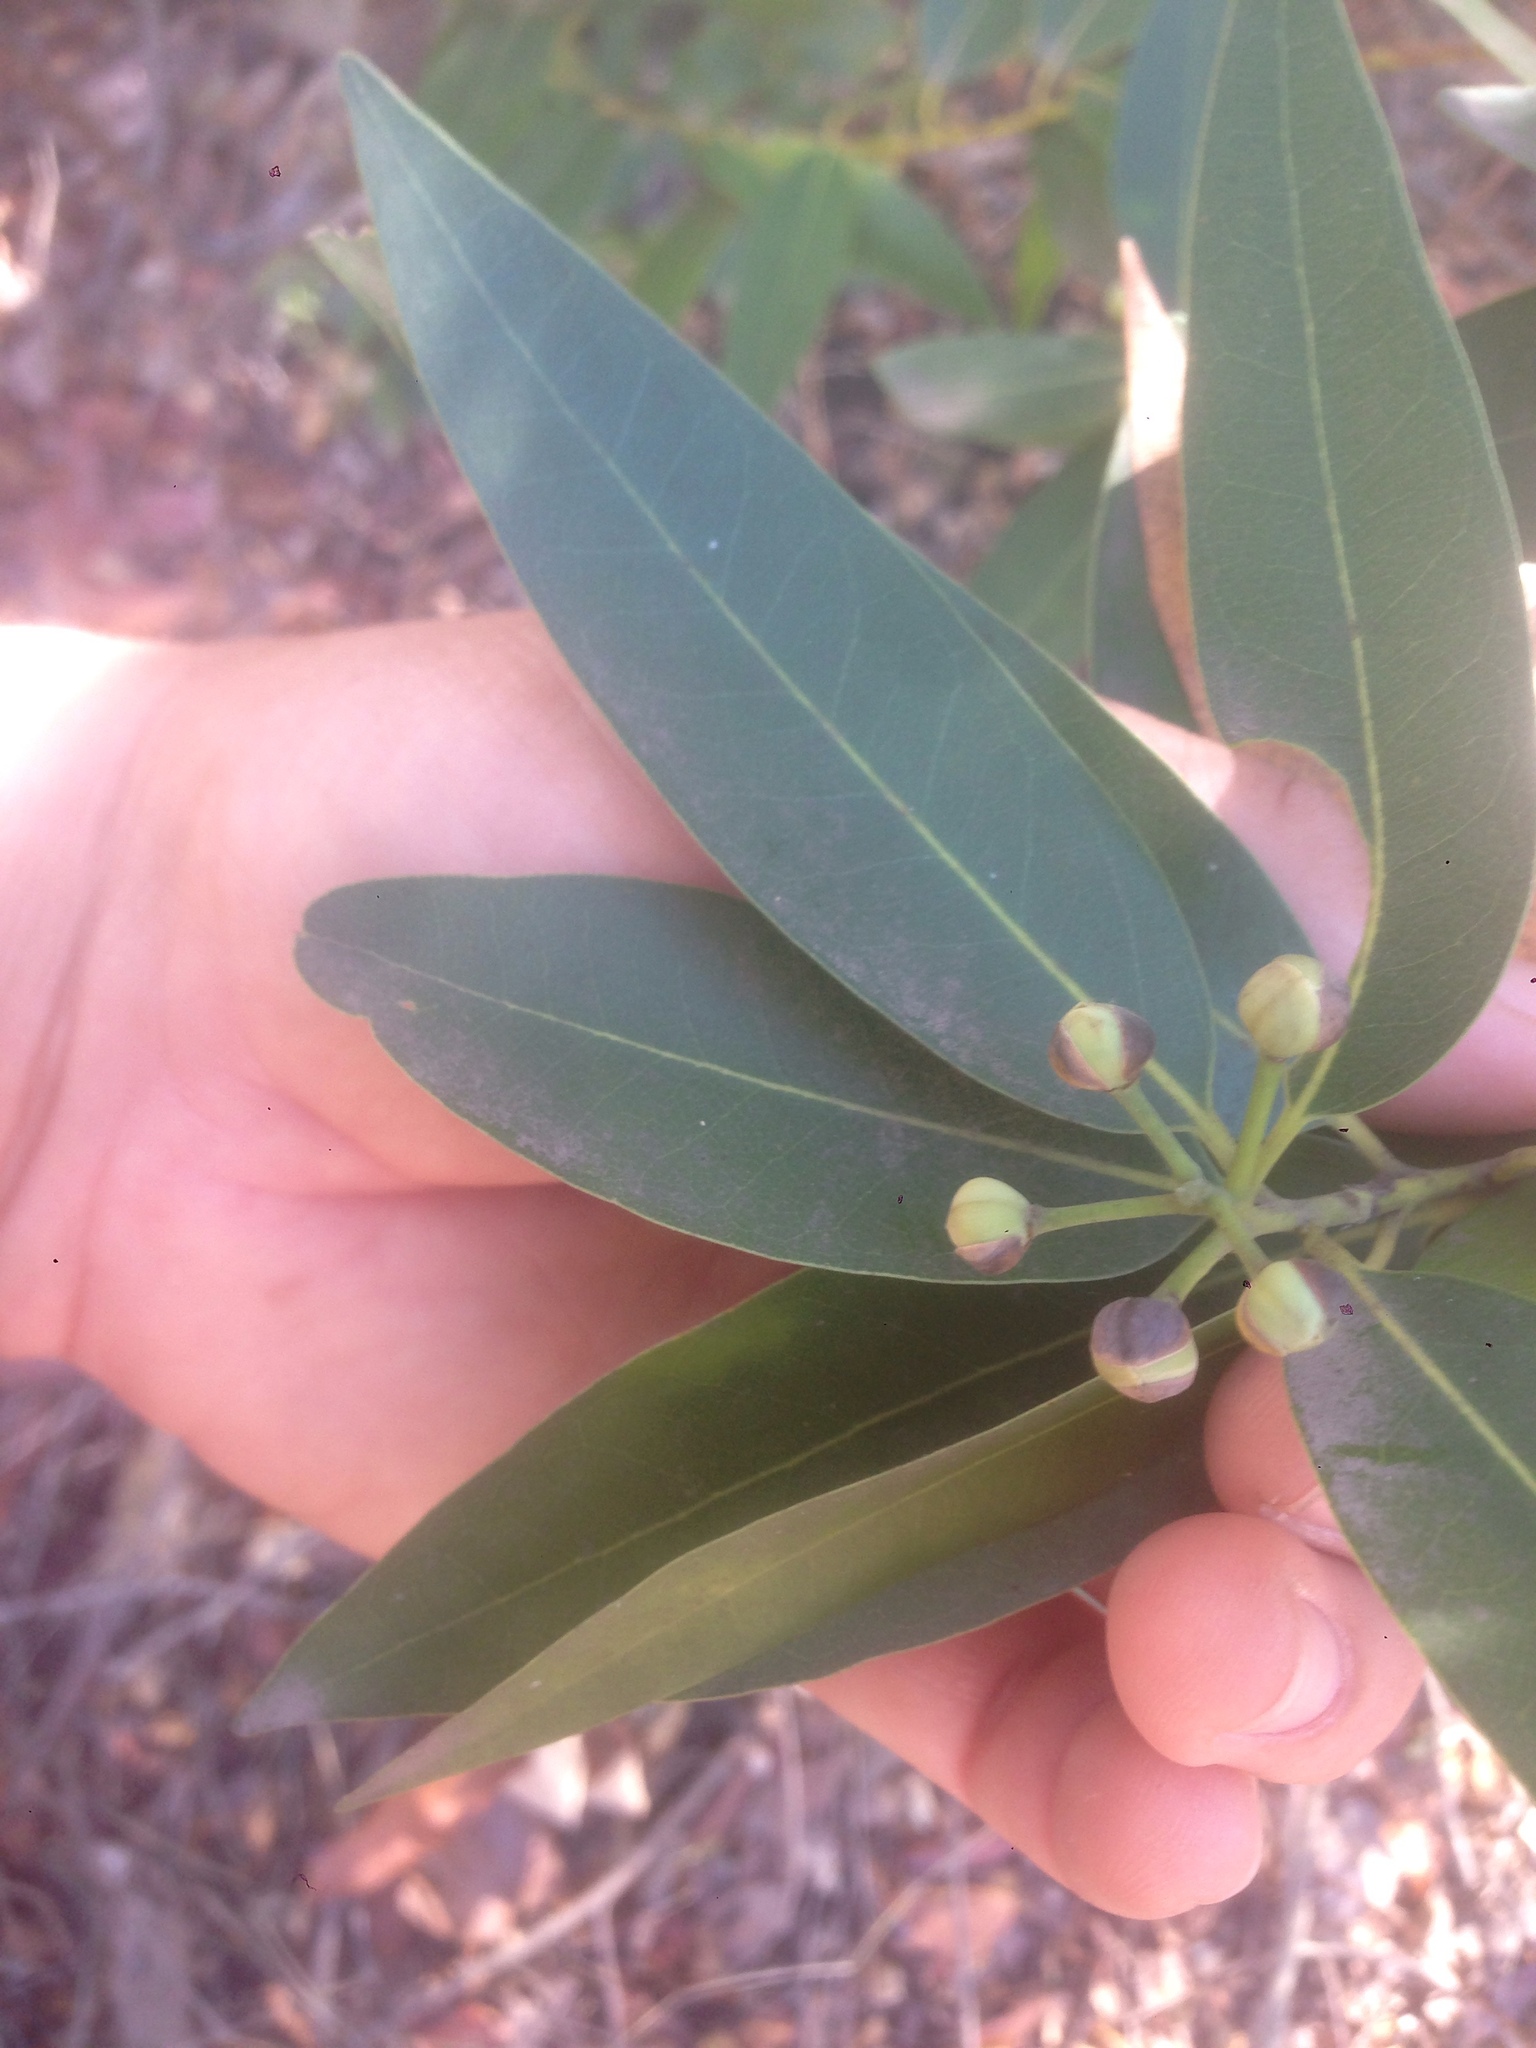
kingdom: Plantae
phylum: Tracheophyta
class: Magnoliopsida
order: Laurales
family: Lauraceae
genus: Umbellularia
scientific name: Umbellularia californica
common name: California bay
